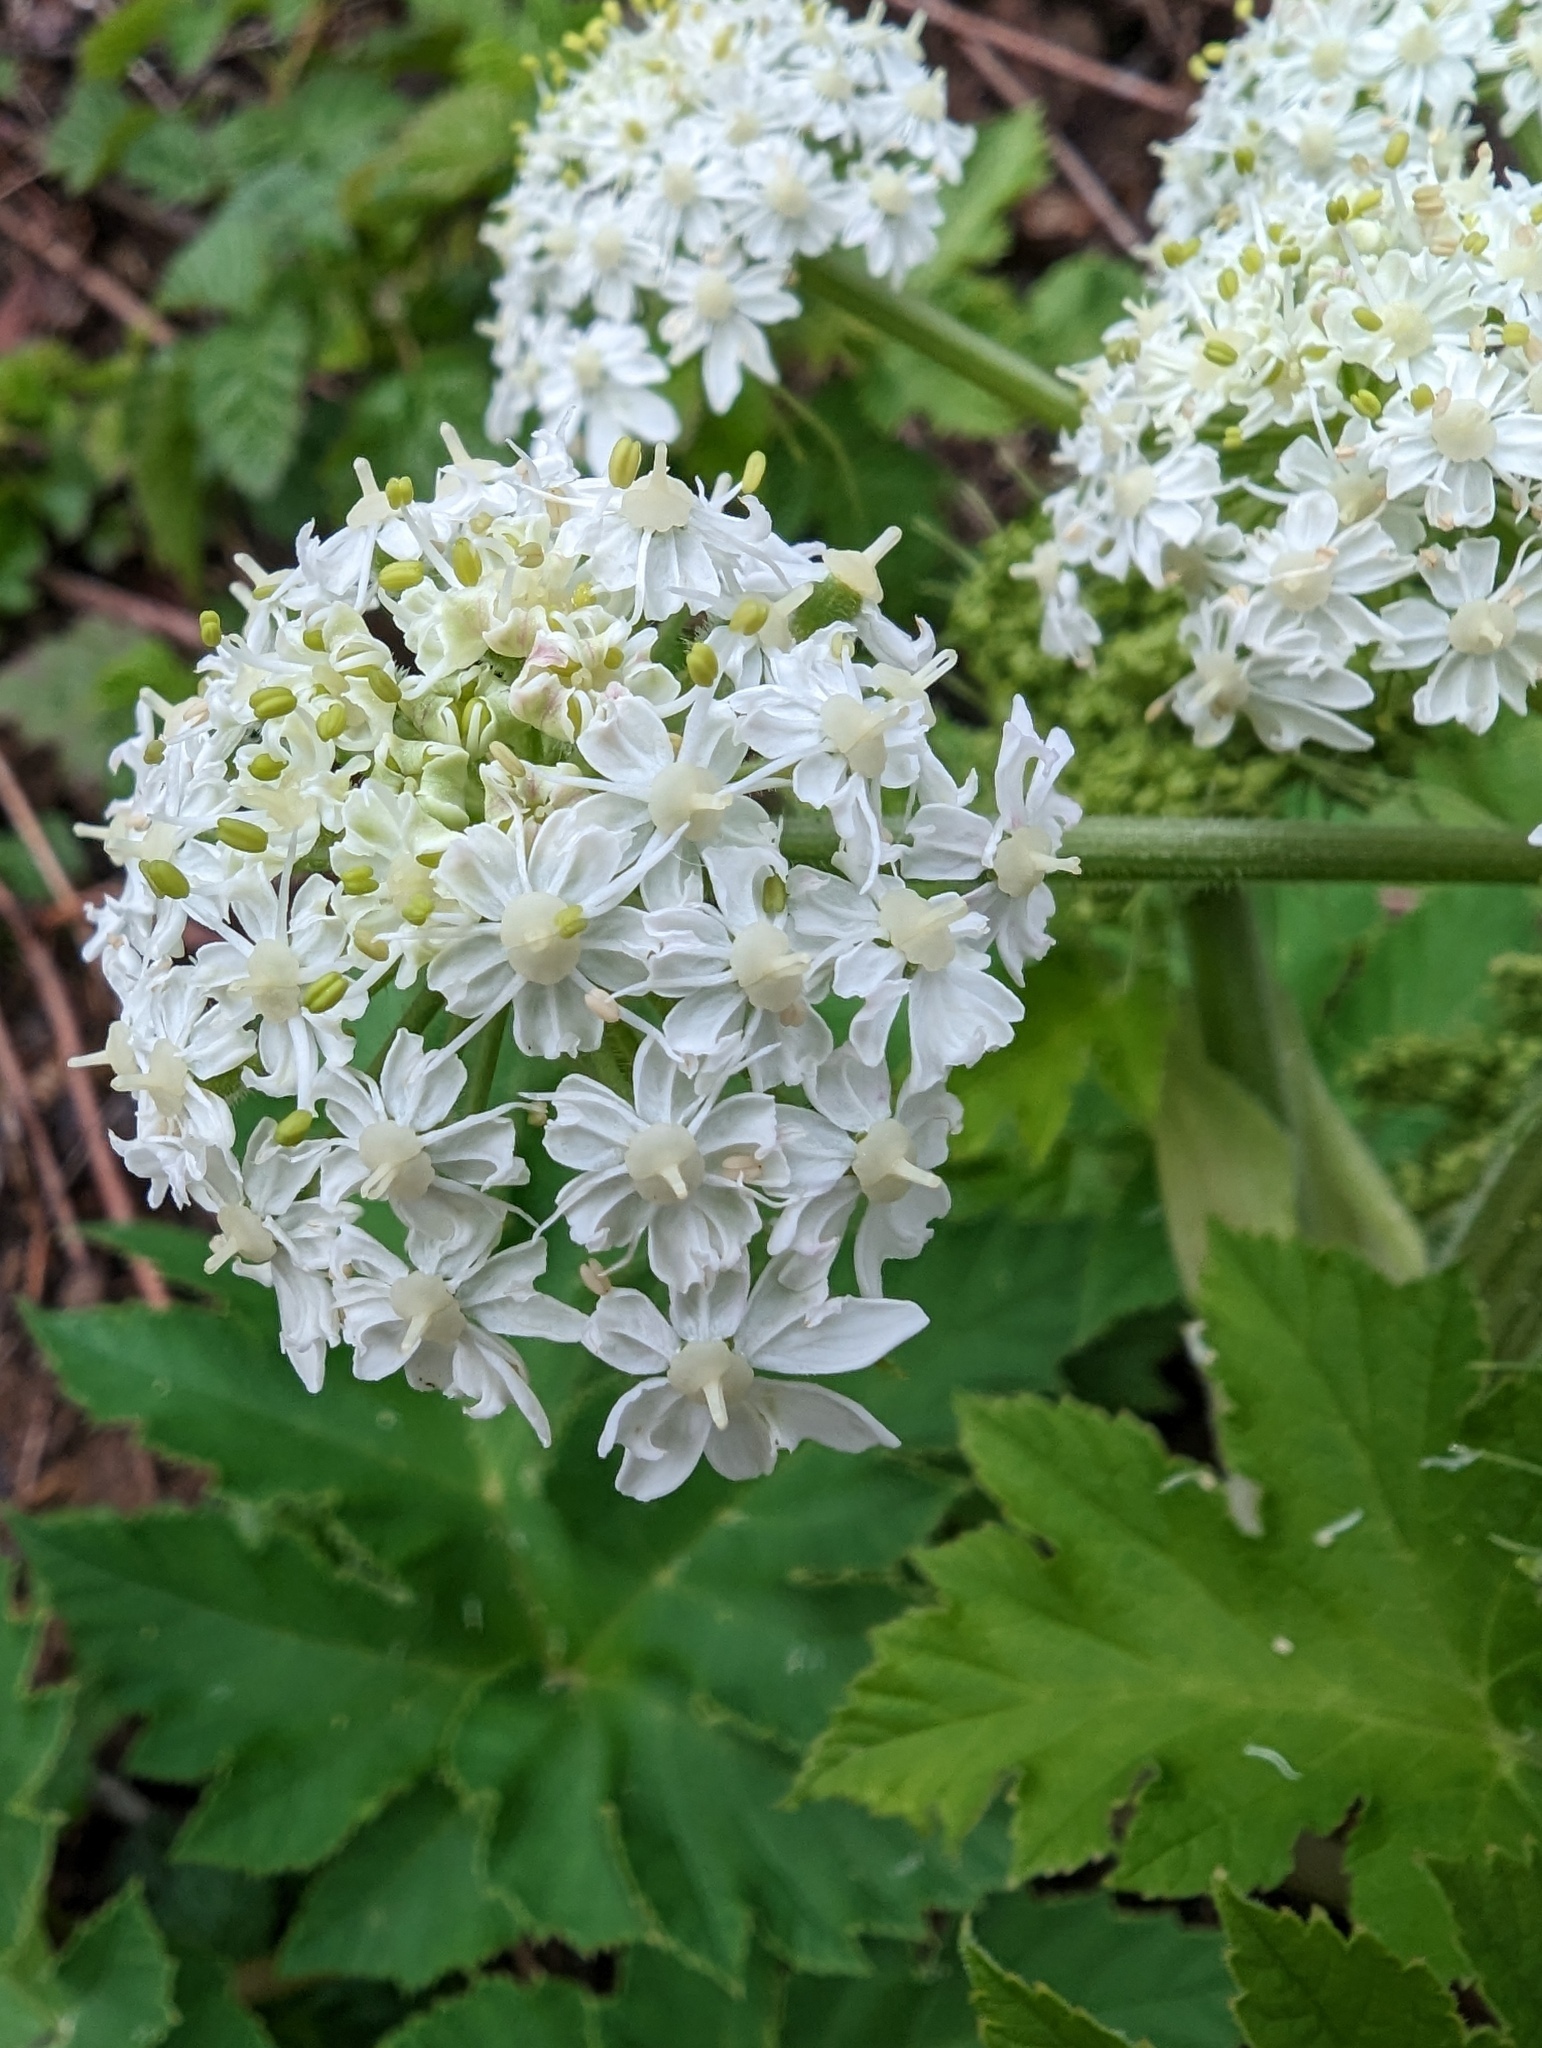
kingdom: Plantae
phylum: Tracheophyta
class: Magnoliopsida
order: Apiales
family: Apiaceae
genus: Heracleum
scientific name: Heracleum maximum
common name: American cow parsnip
